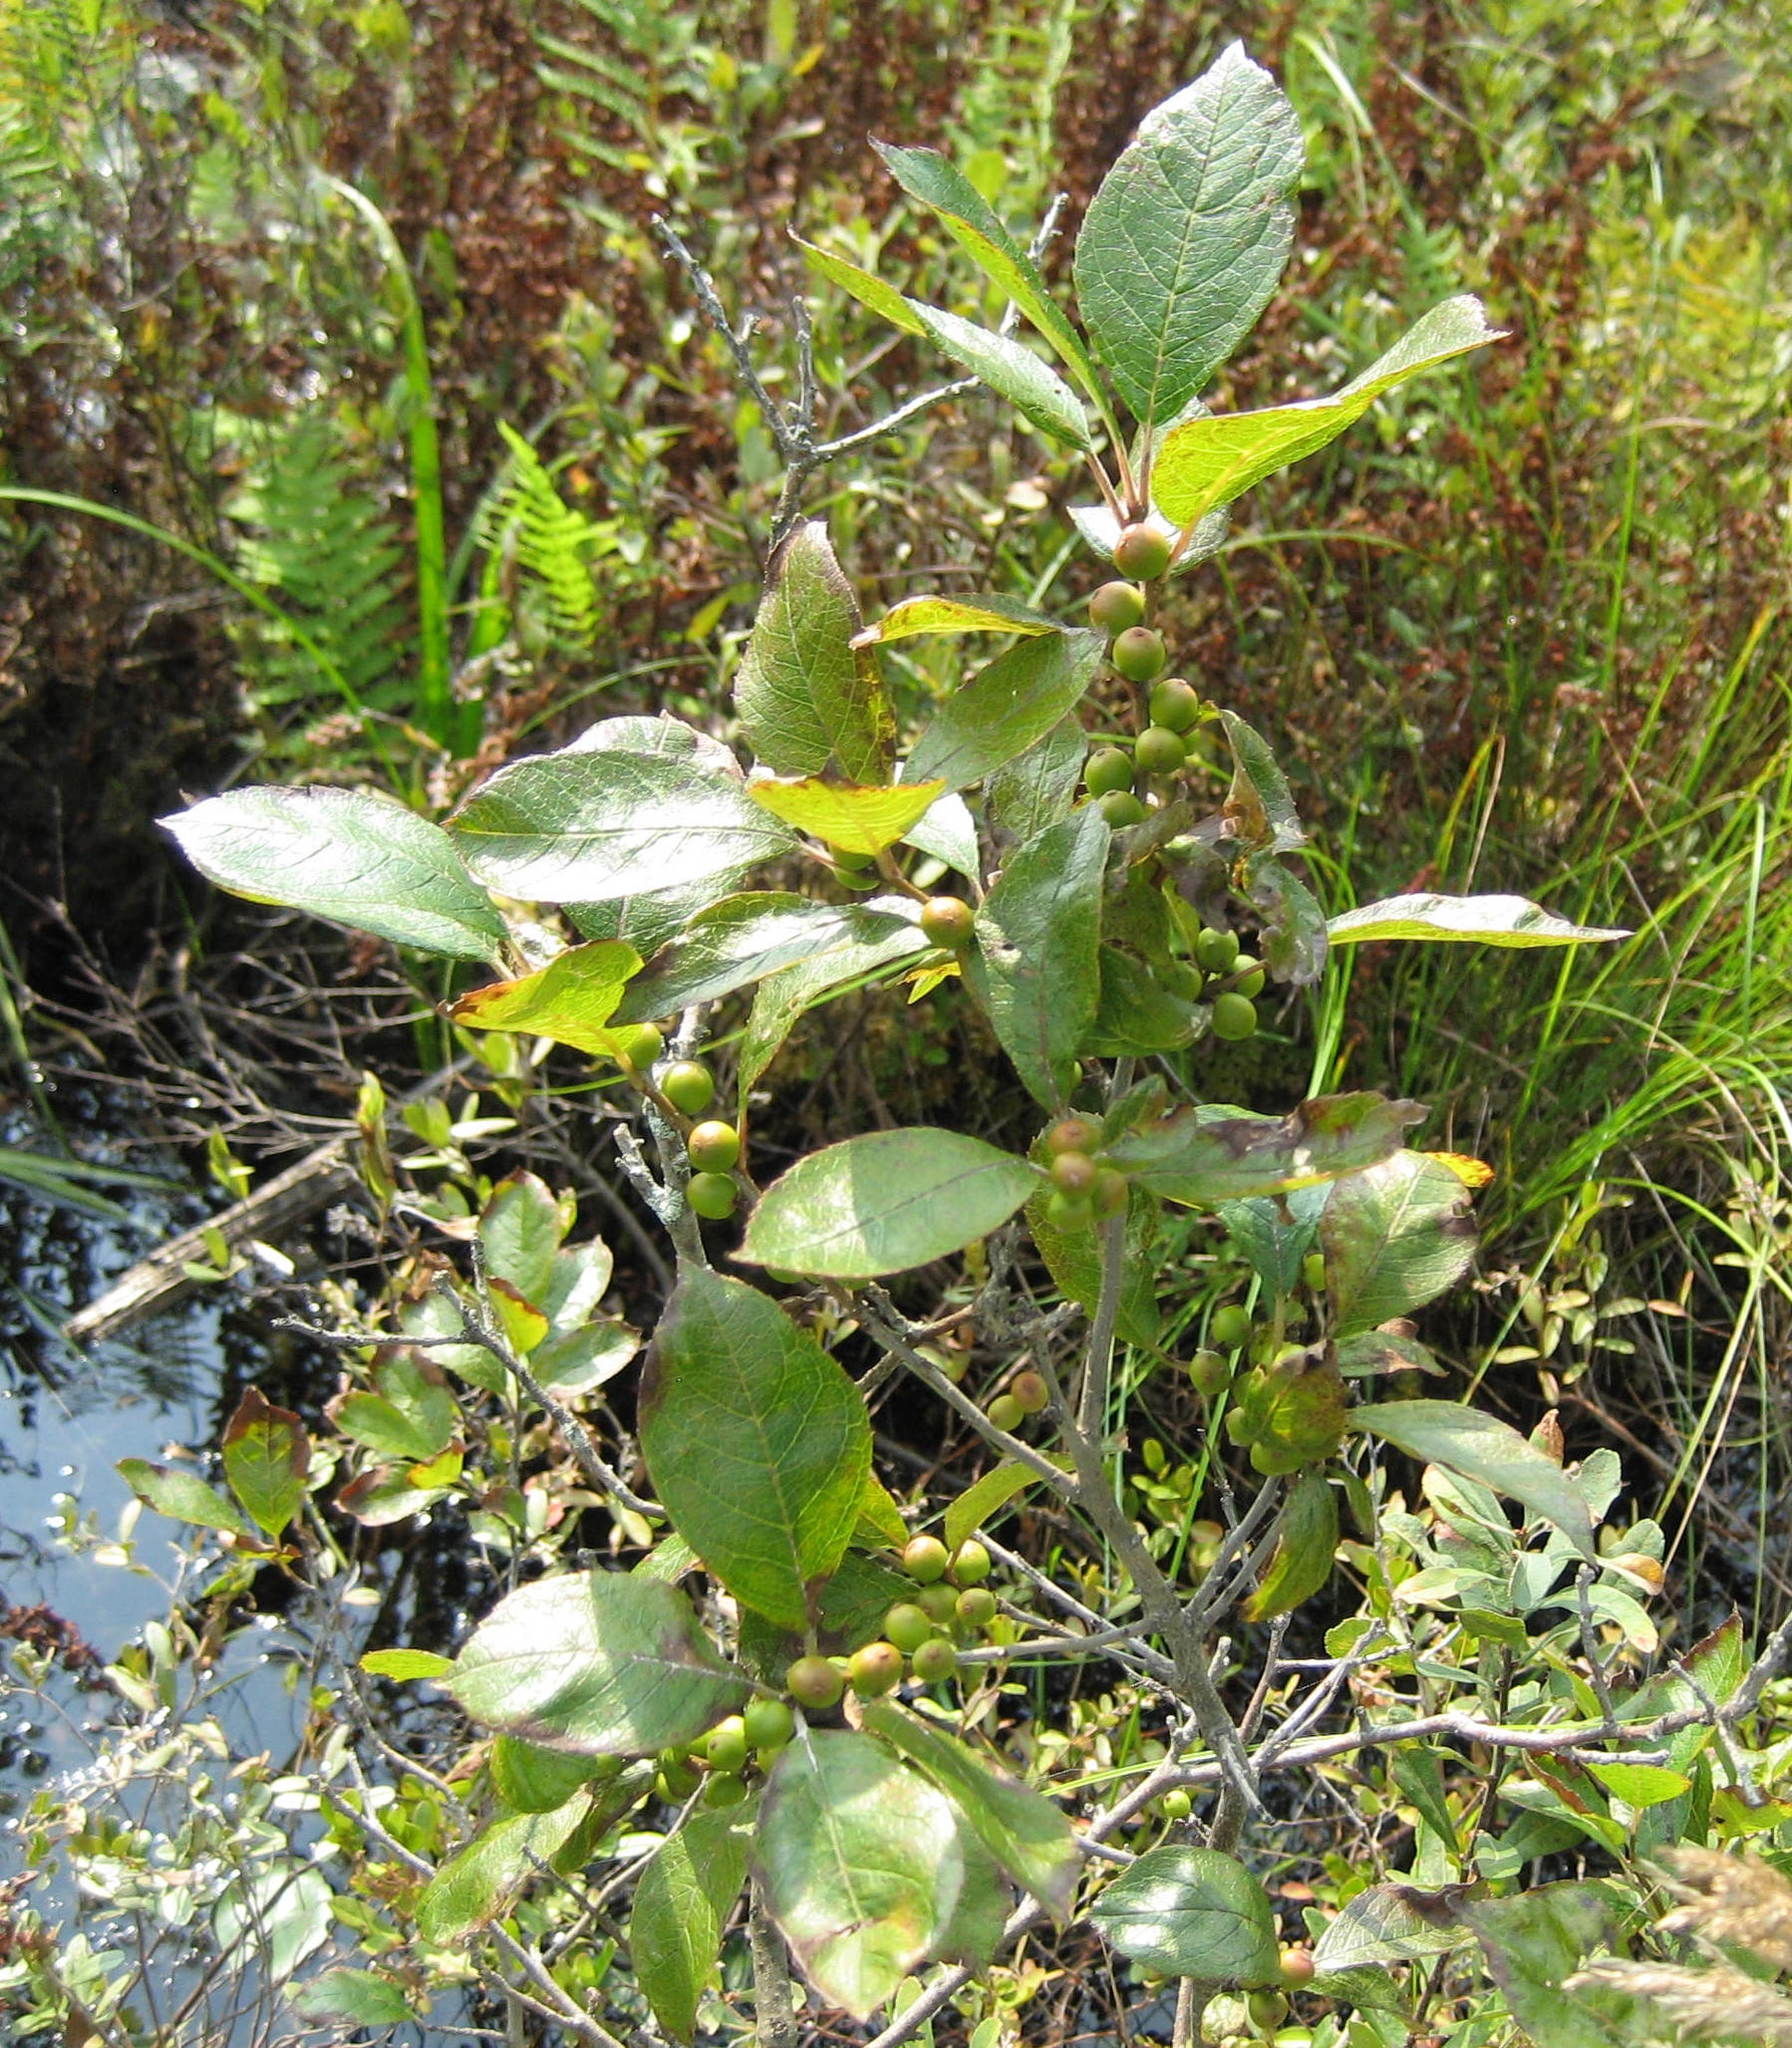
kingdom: Plantae
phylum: Tracheophyta
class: Magnoliopsida
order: Aquifoliales
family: Aquifoliaceae
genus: Ilex
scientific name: Ilex verticillata
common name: Virginia winterberry
